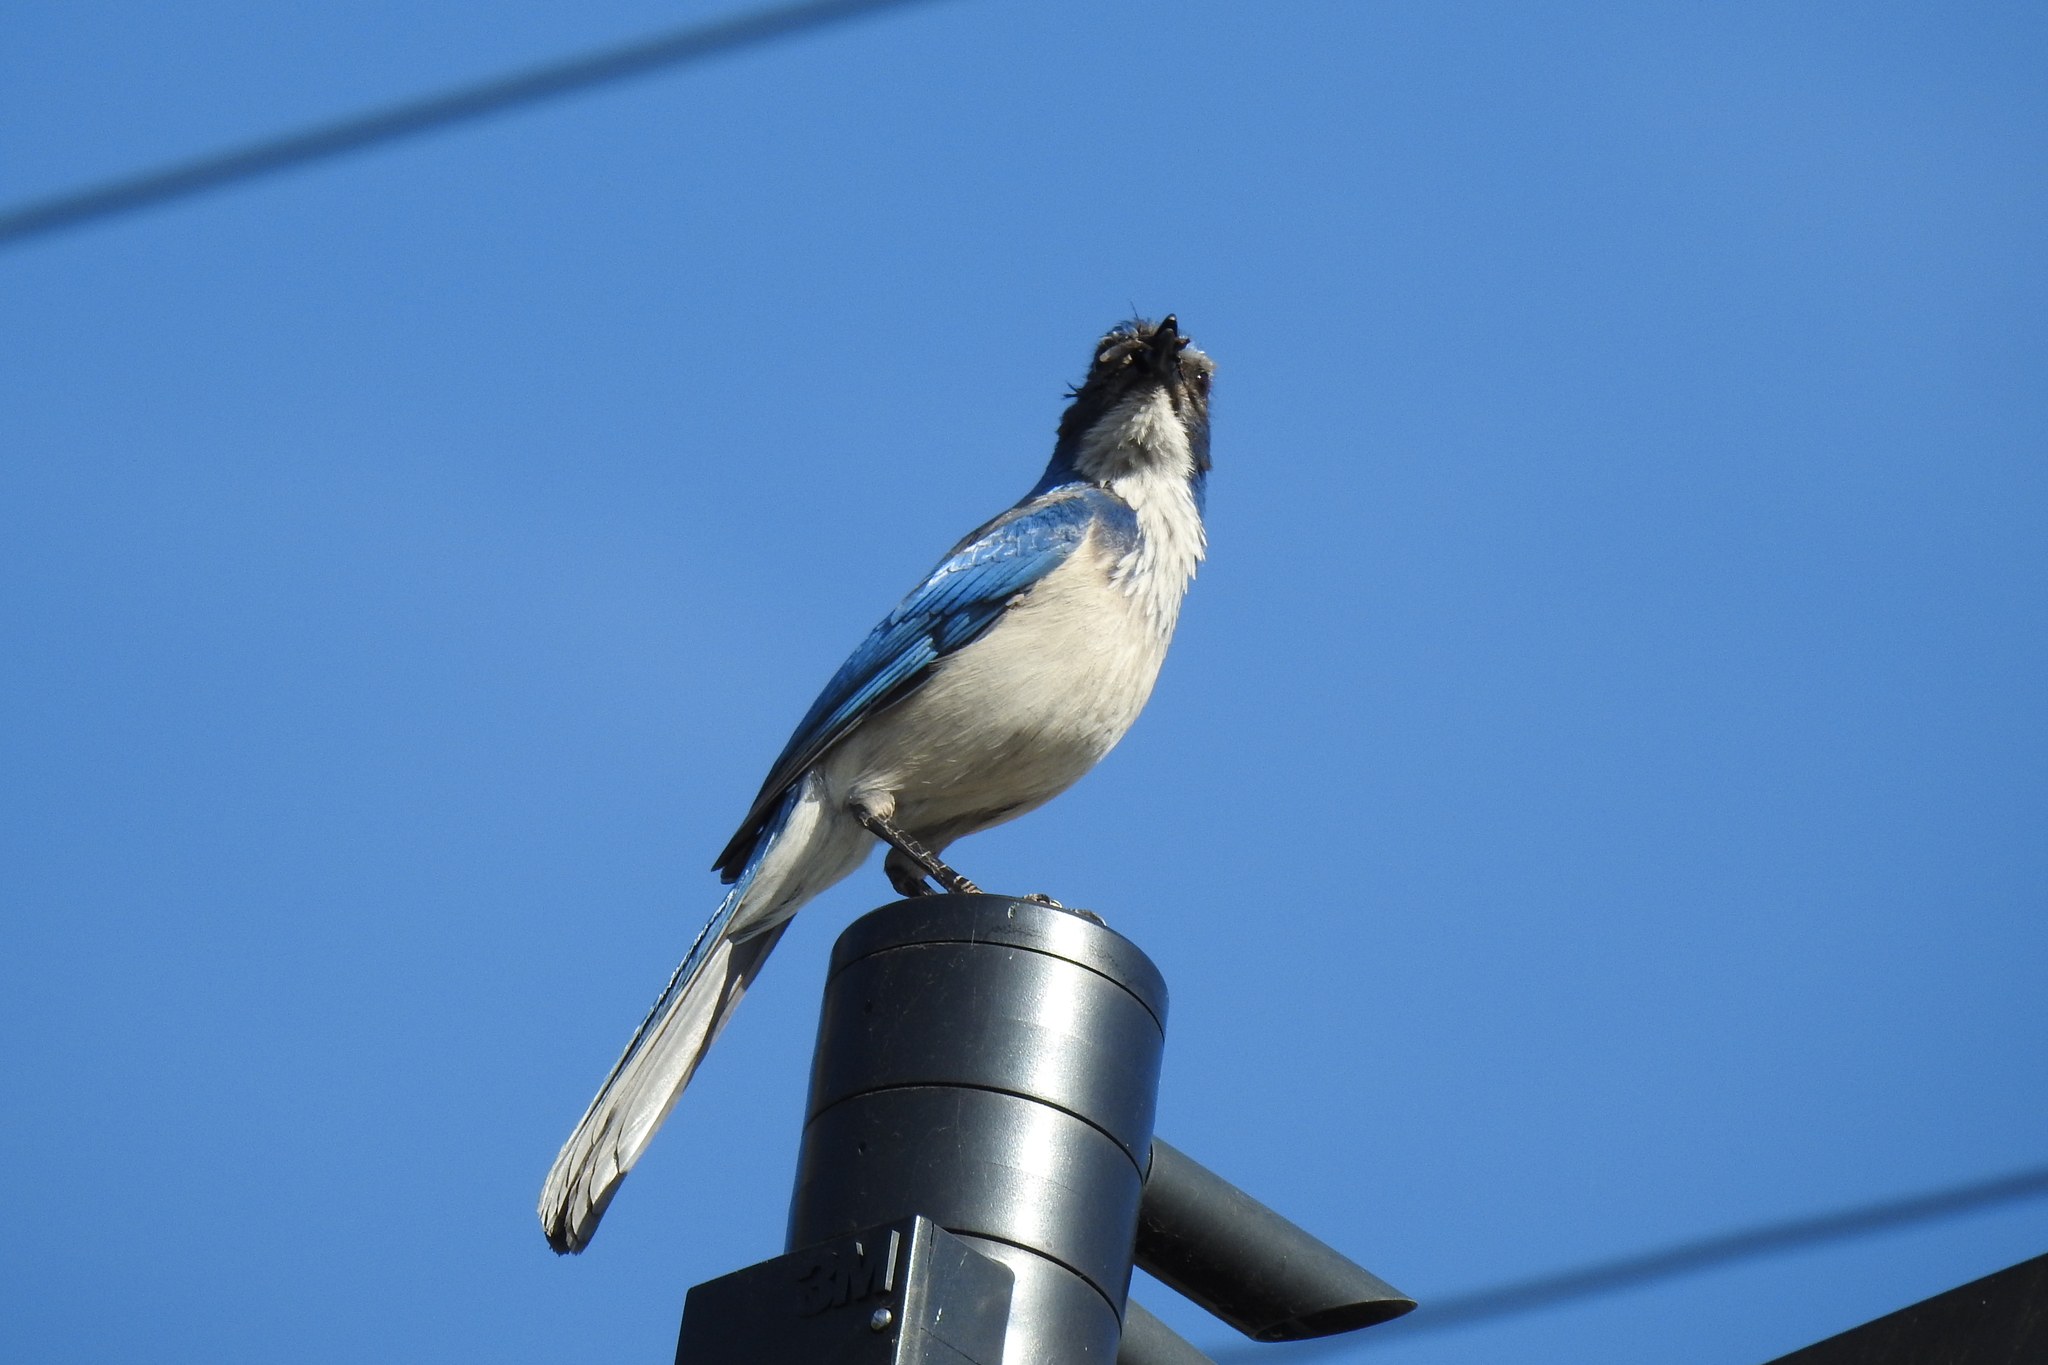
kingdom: Animalia
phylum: Chordata
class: Aves
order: Passeriformes
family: Corvidae
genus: Aphelocoma
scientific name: Aphelocoma californica
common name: California scrub-jay
